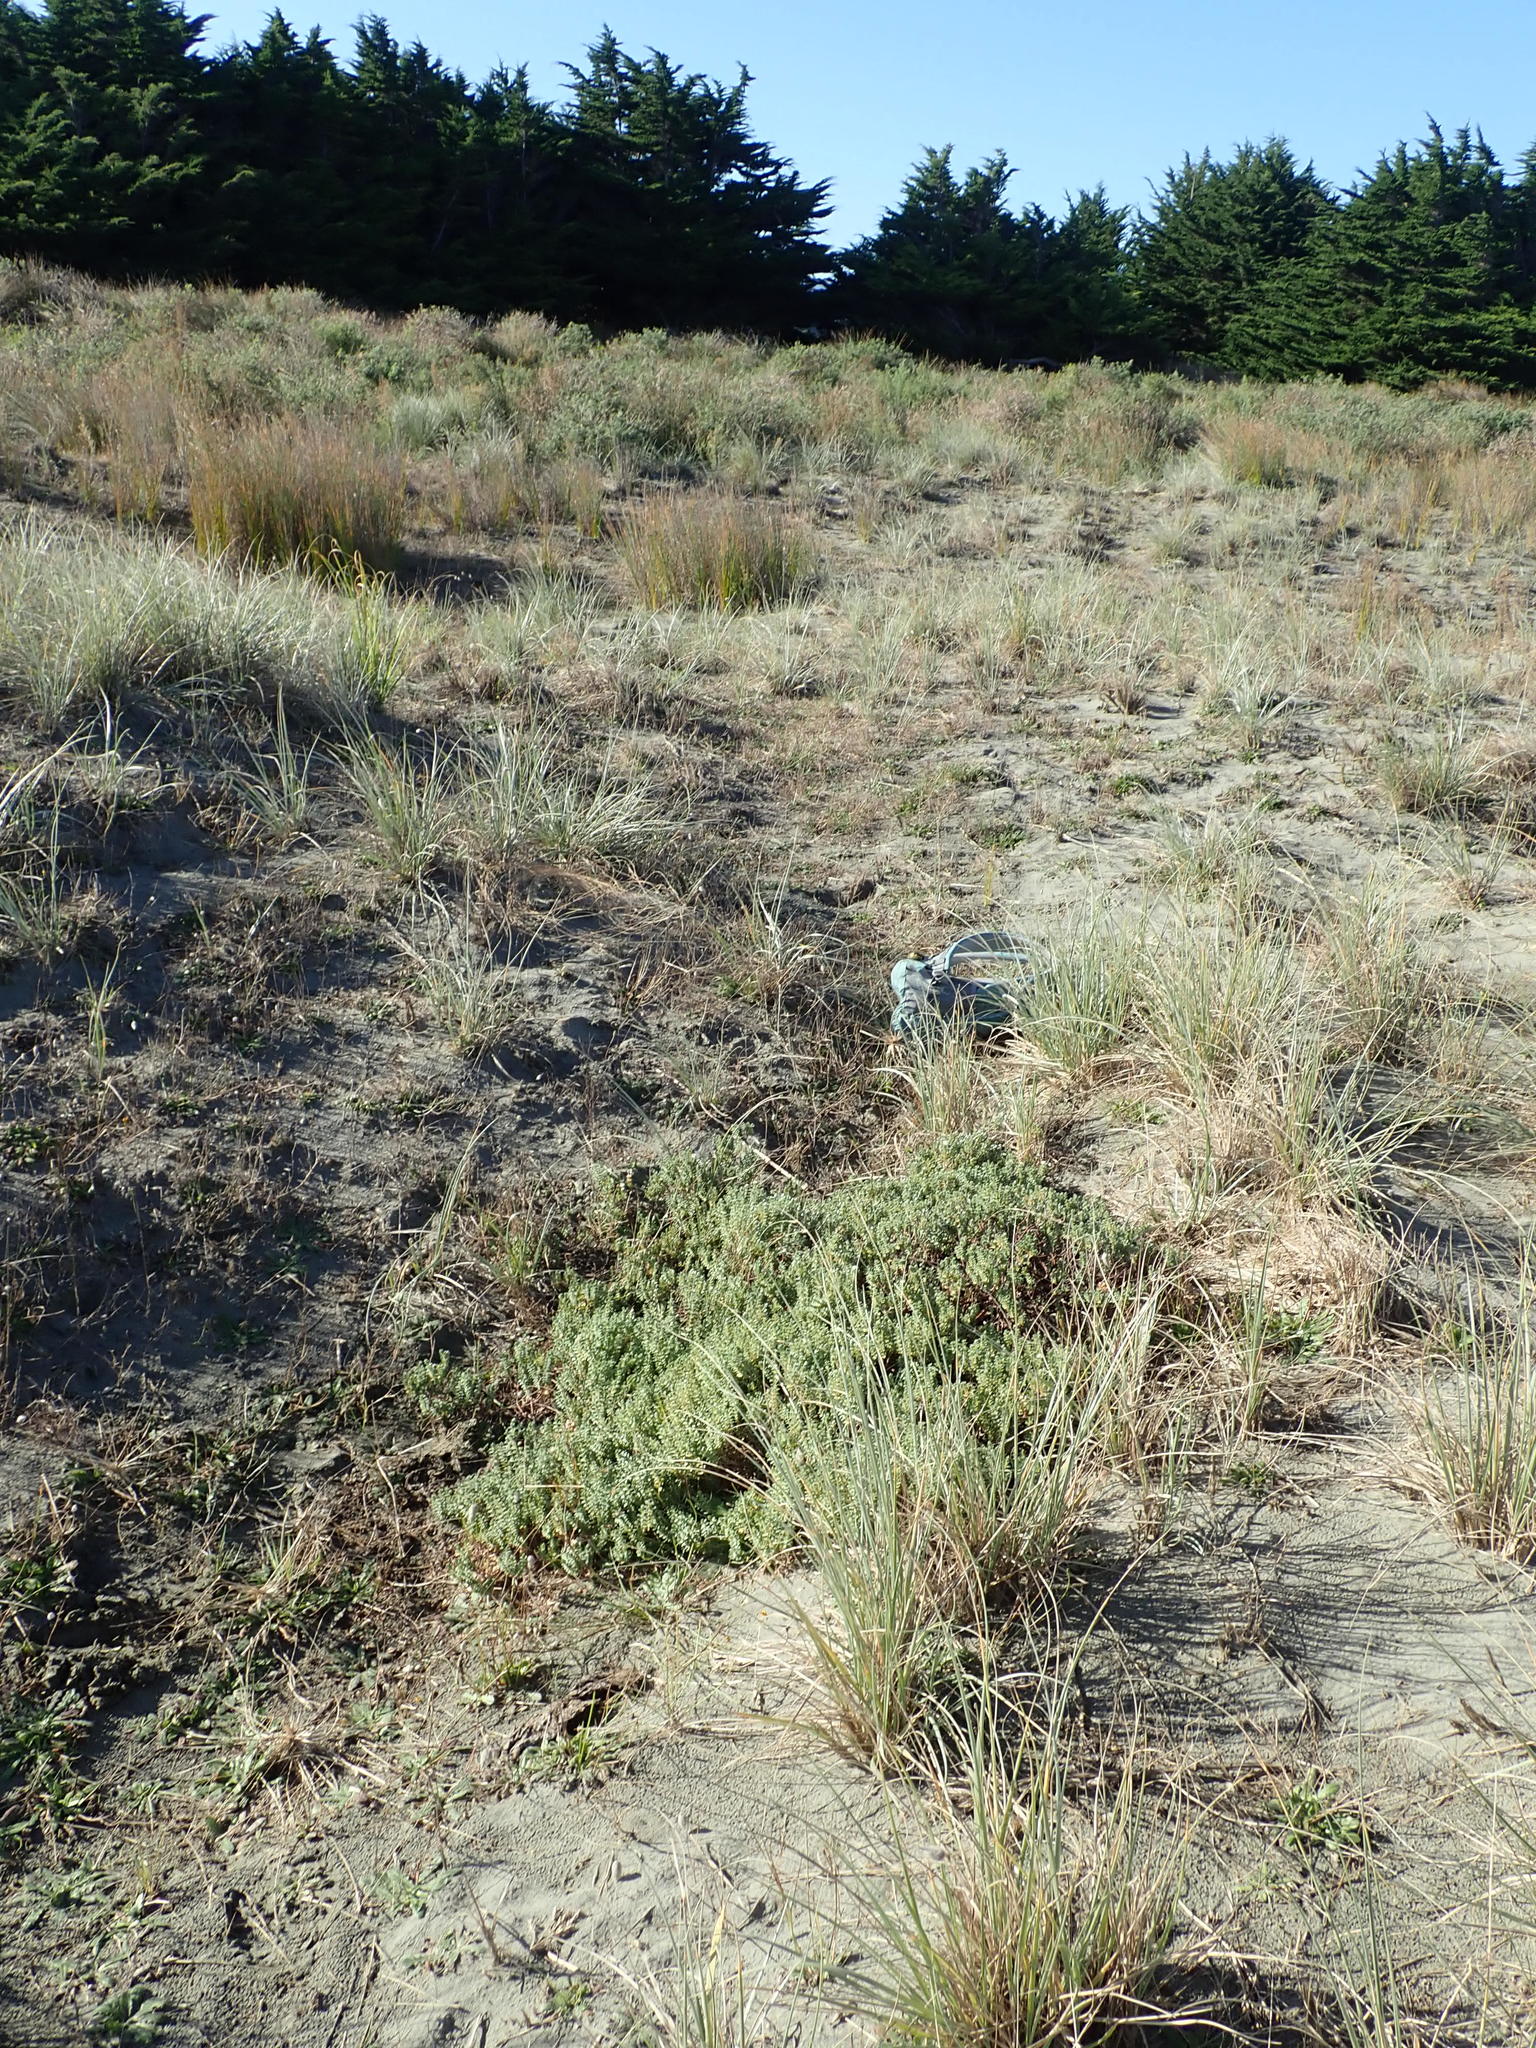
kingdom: Animalia
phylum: Arthropoda
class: Arachnida
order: Araneae
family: Theridiidae
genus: Latrodectus
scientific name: Latrodectus katipo
